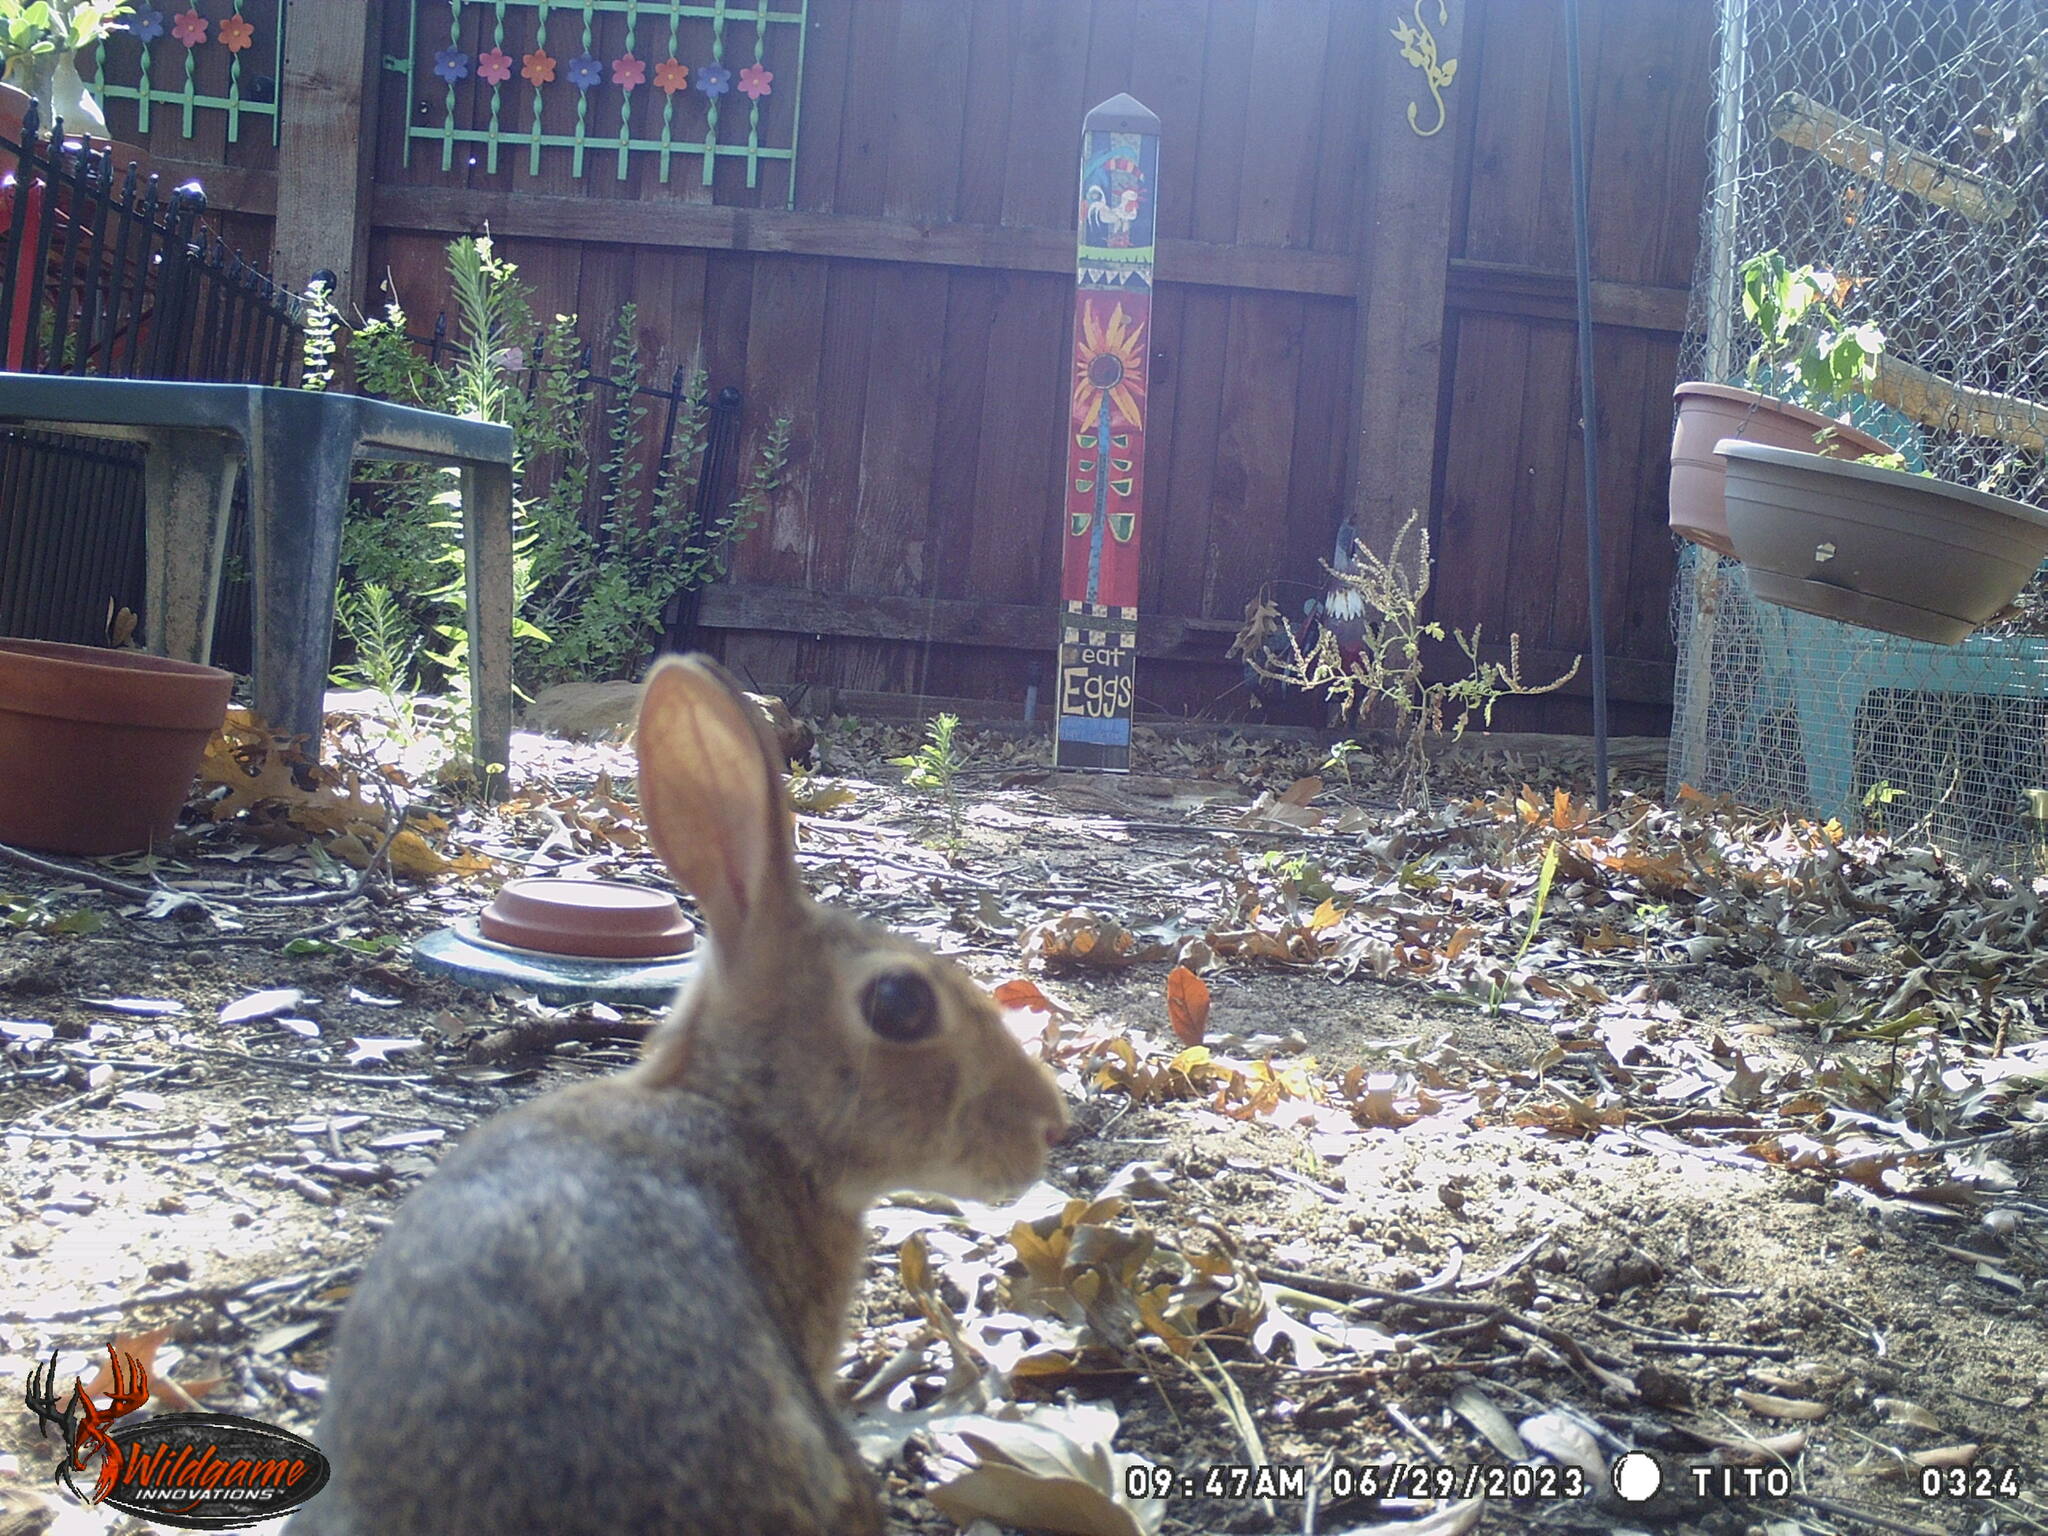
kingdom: Animalia
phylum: Chordata
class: Mammalia
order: Lagomorpha
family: Leporidae
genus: Sylvilagus
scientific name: Sylvilagus floridanus
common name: Eastern cottontail
